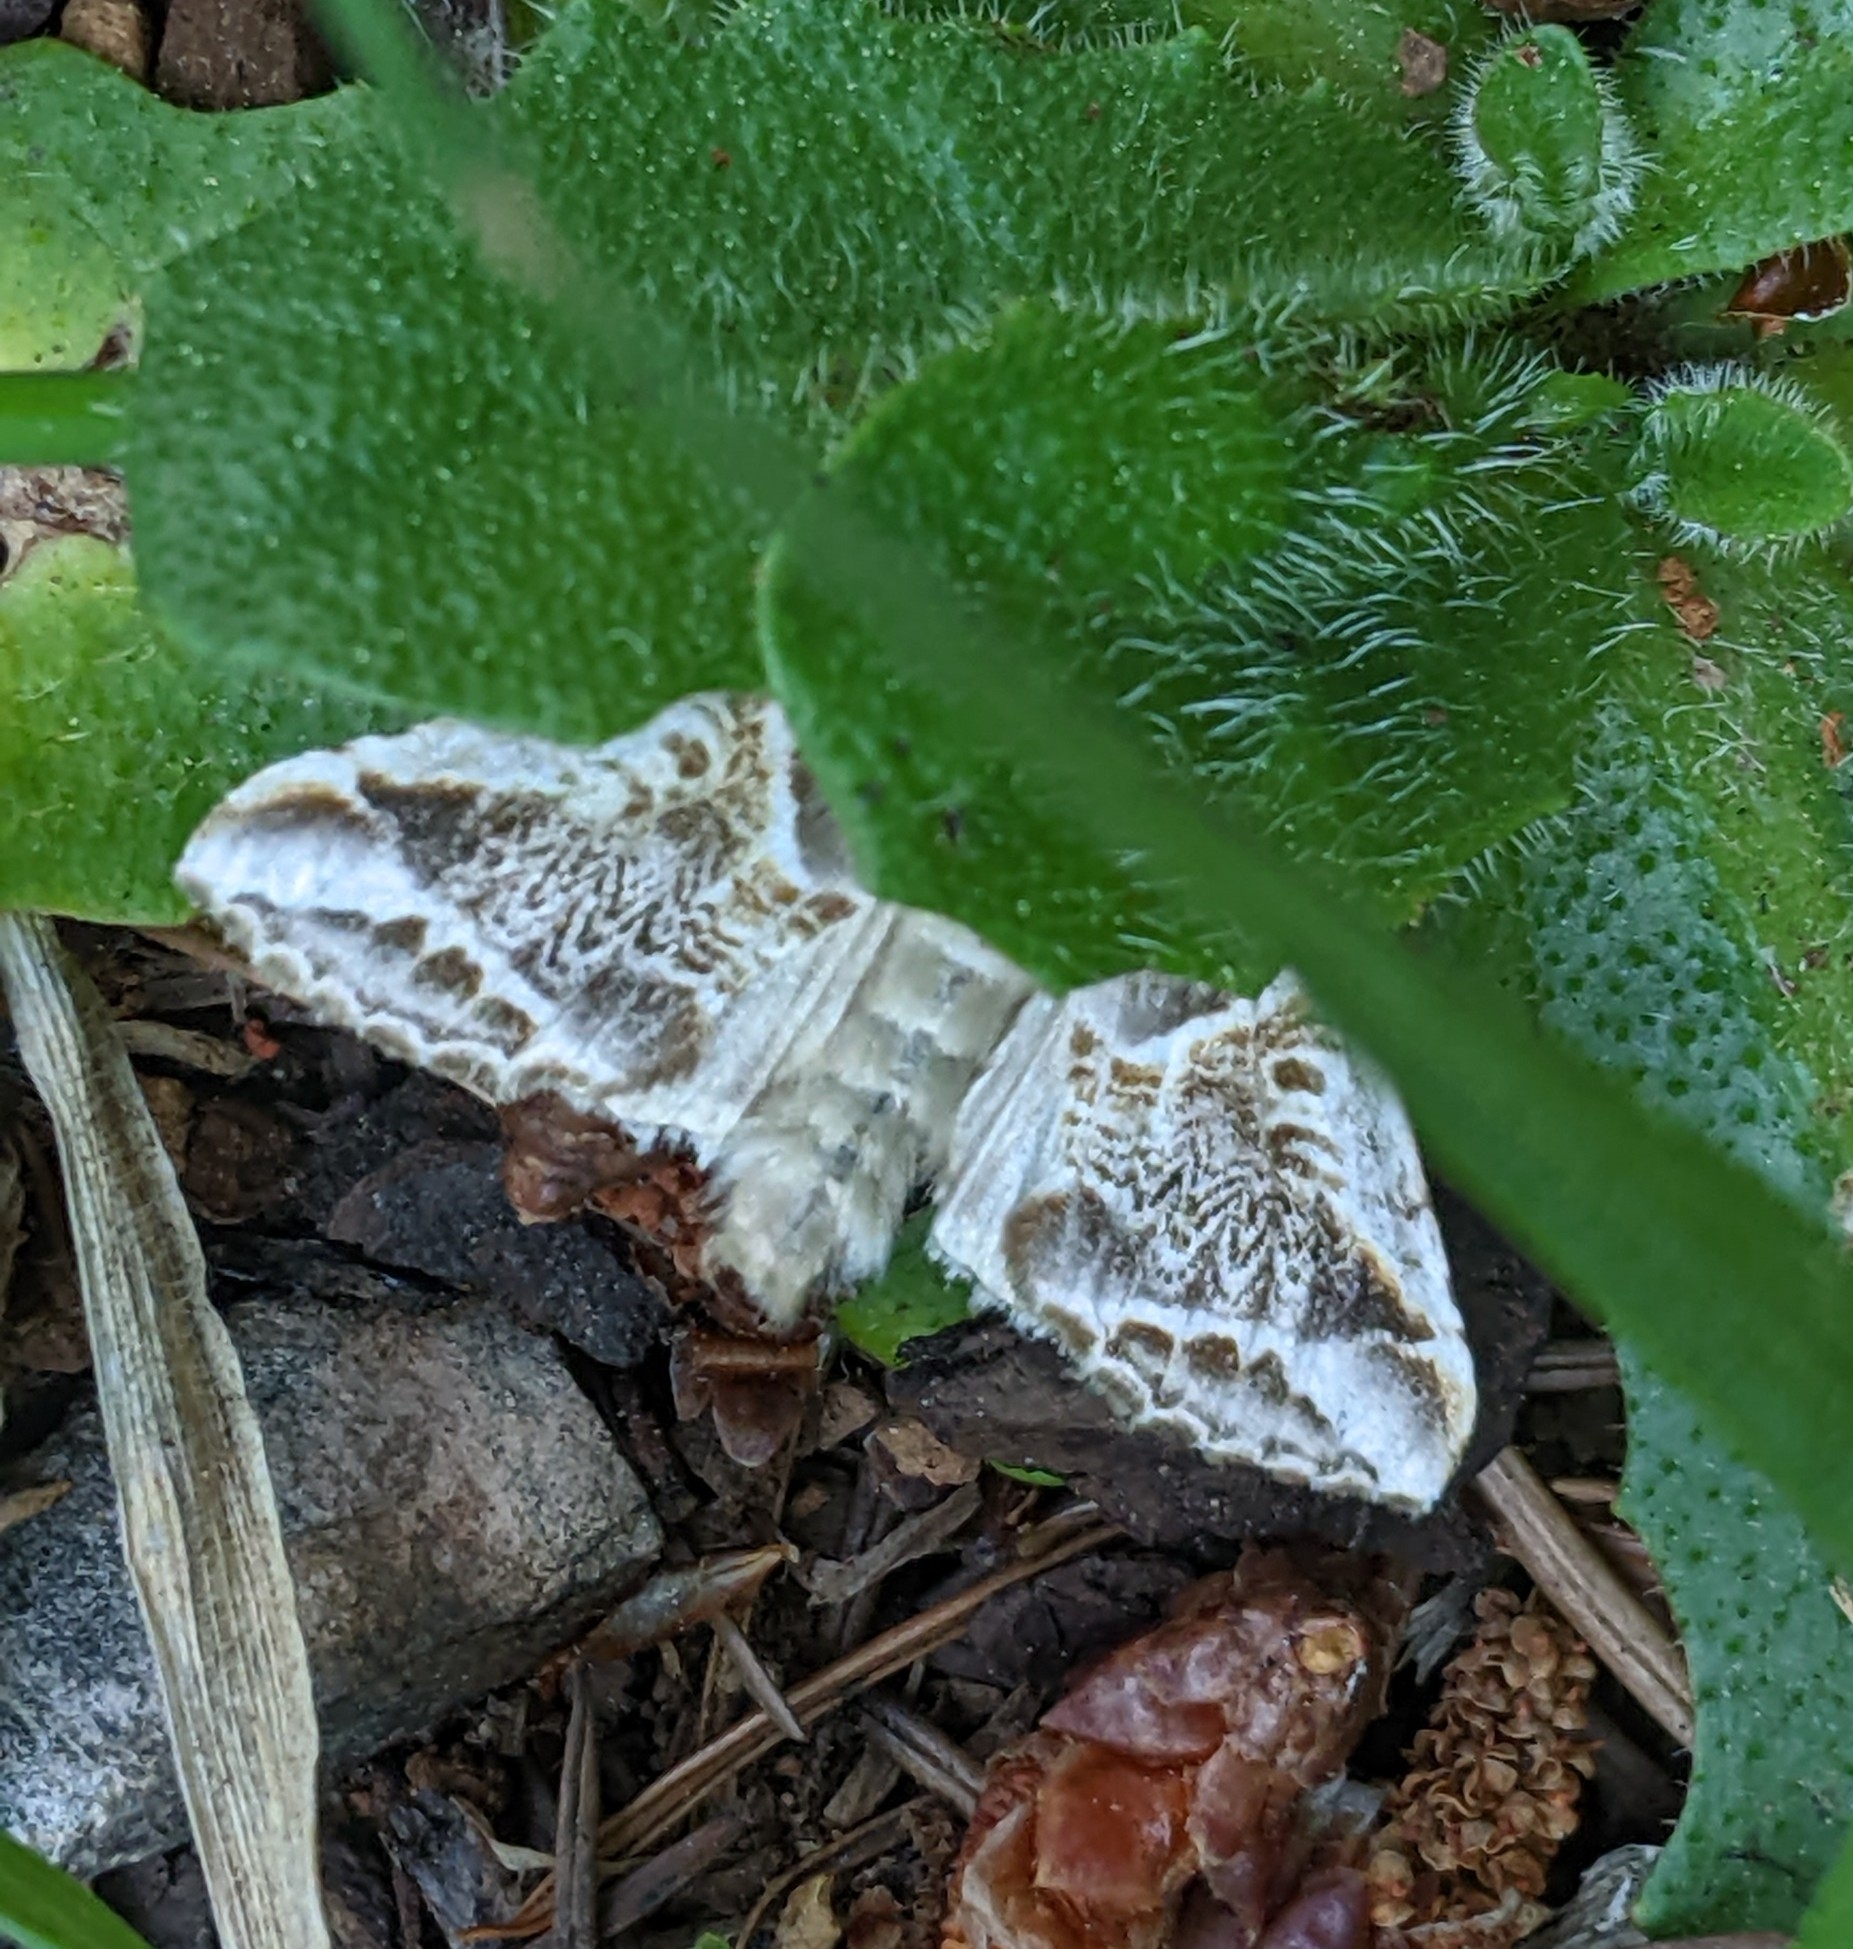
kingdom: Animalia
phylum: Arthropoda
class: Insecta
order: Lepidoptera
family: Drepanidae
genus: Habrosyne
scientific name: Habrosyne scripta
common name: Lettered habrosyne moth
